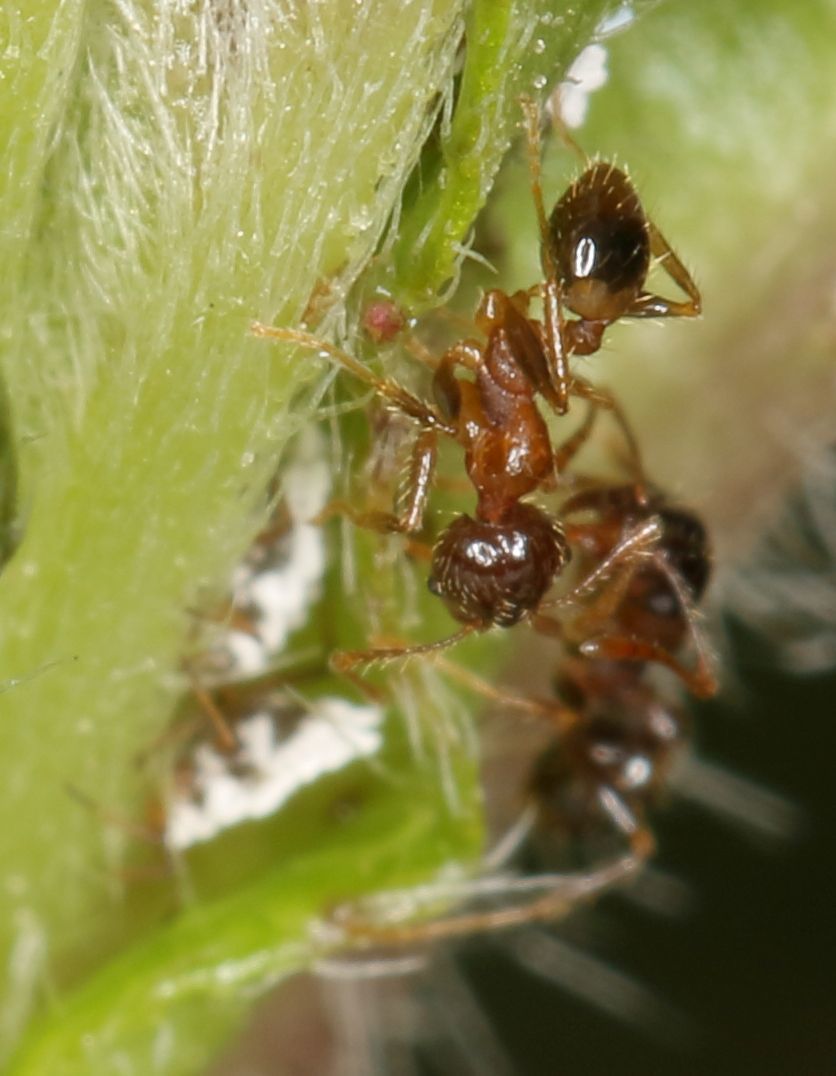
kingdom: Animalia
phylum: Arthropoda
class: Insecta
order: Hymenoptera
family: Formicidae
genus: Pheidole
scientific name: Pheidole megacephala
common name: Bigheaded ant
